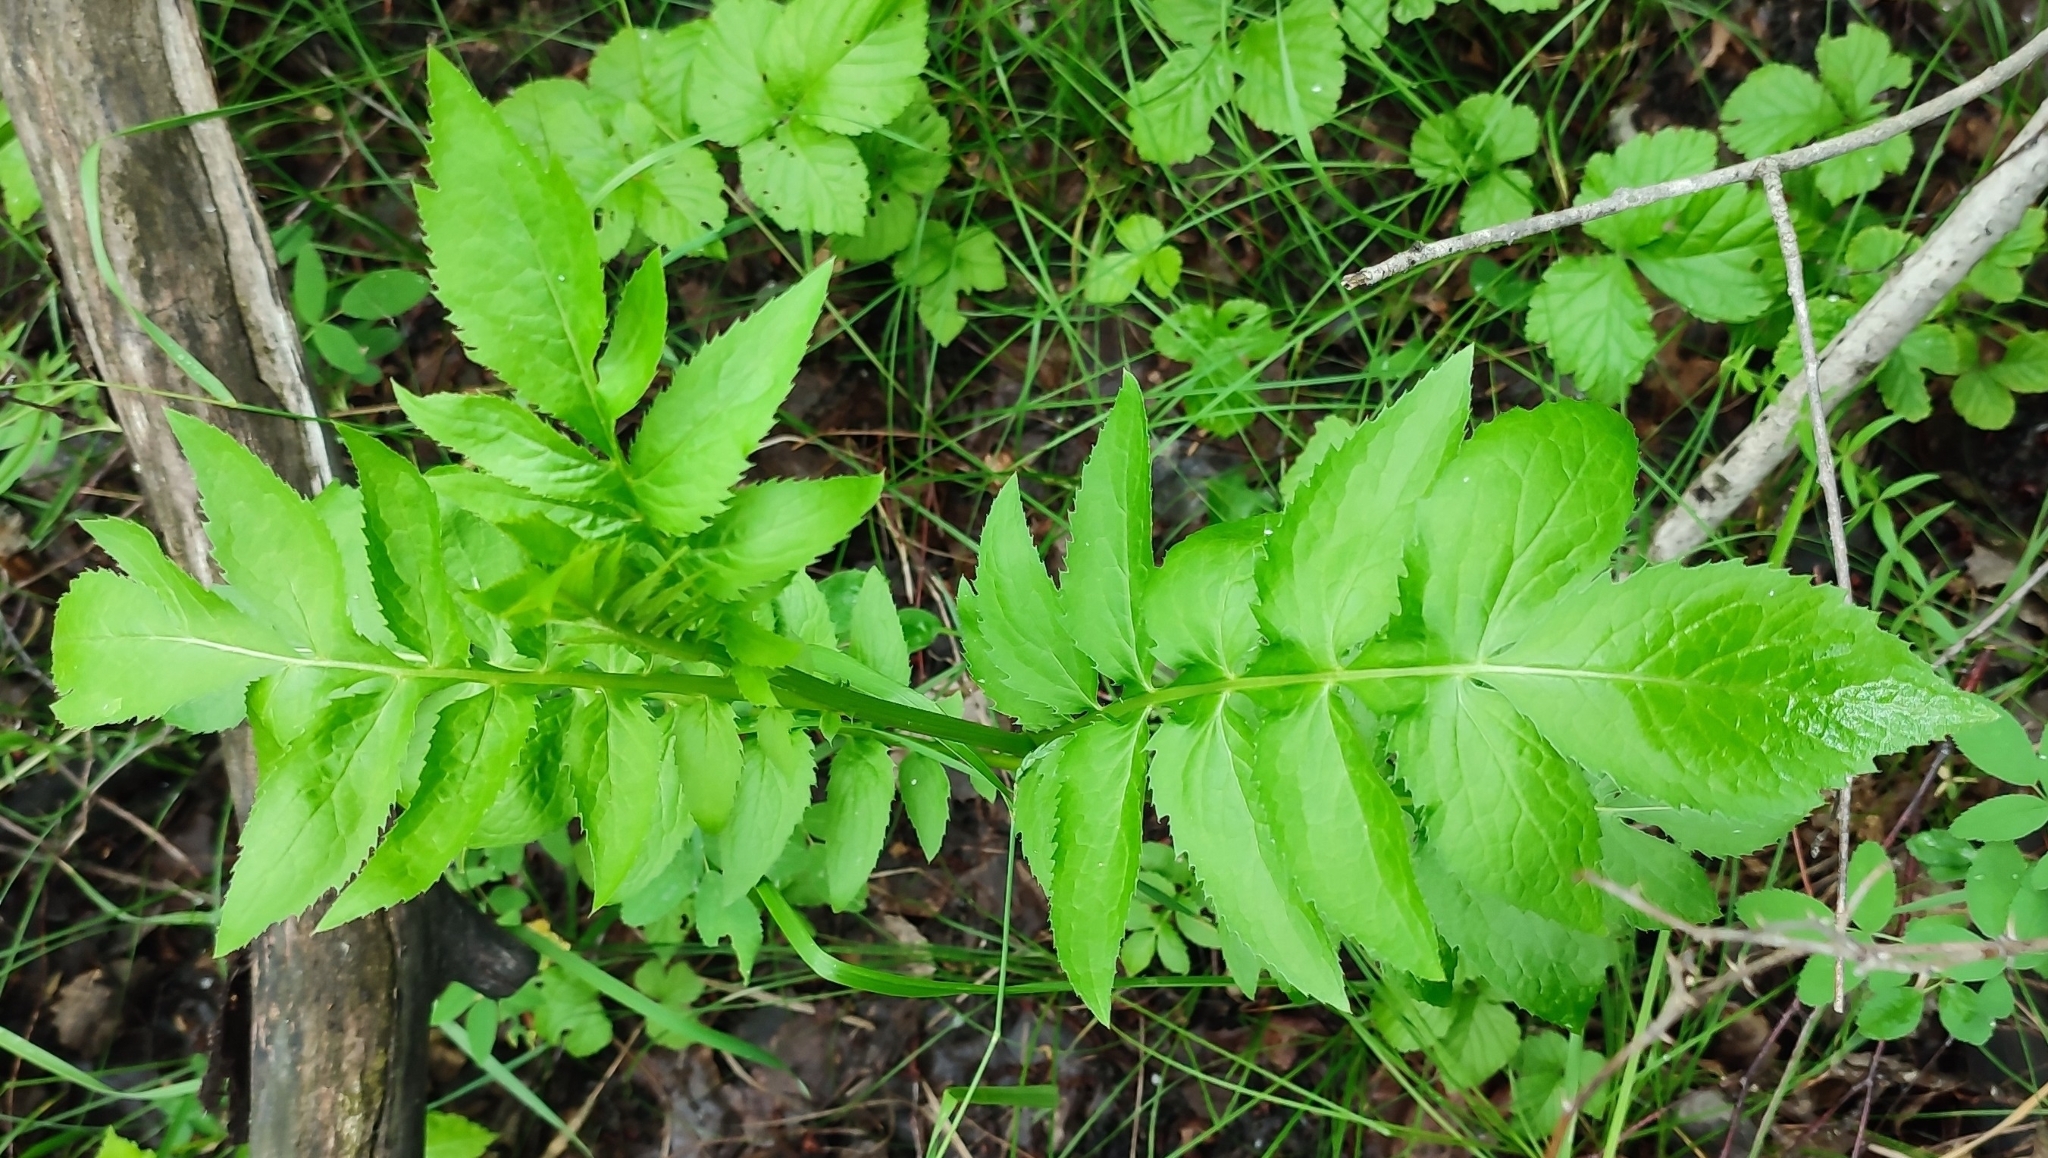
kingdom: Plantae
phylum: Tracheophyta
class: Magnoliopsida
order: Asterales
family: Asteraceae
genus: Serratula
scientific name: Serratula coronata
